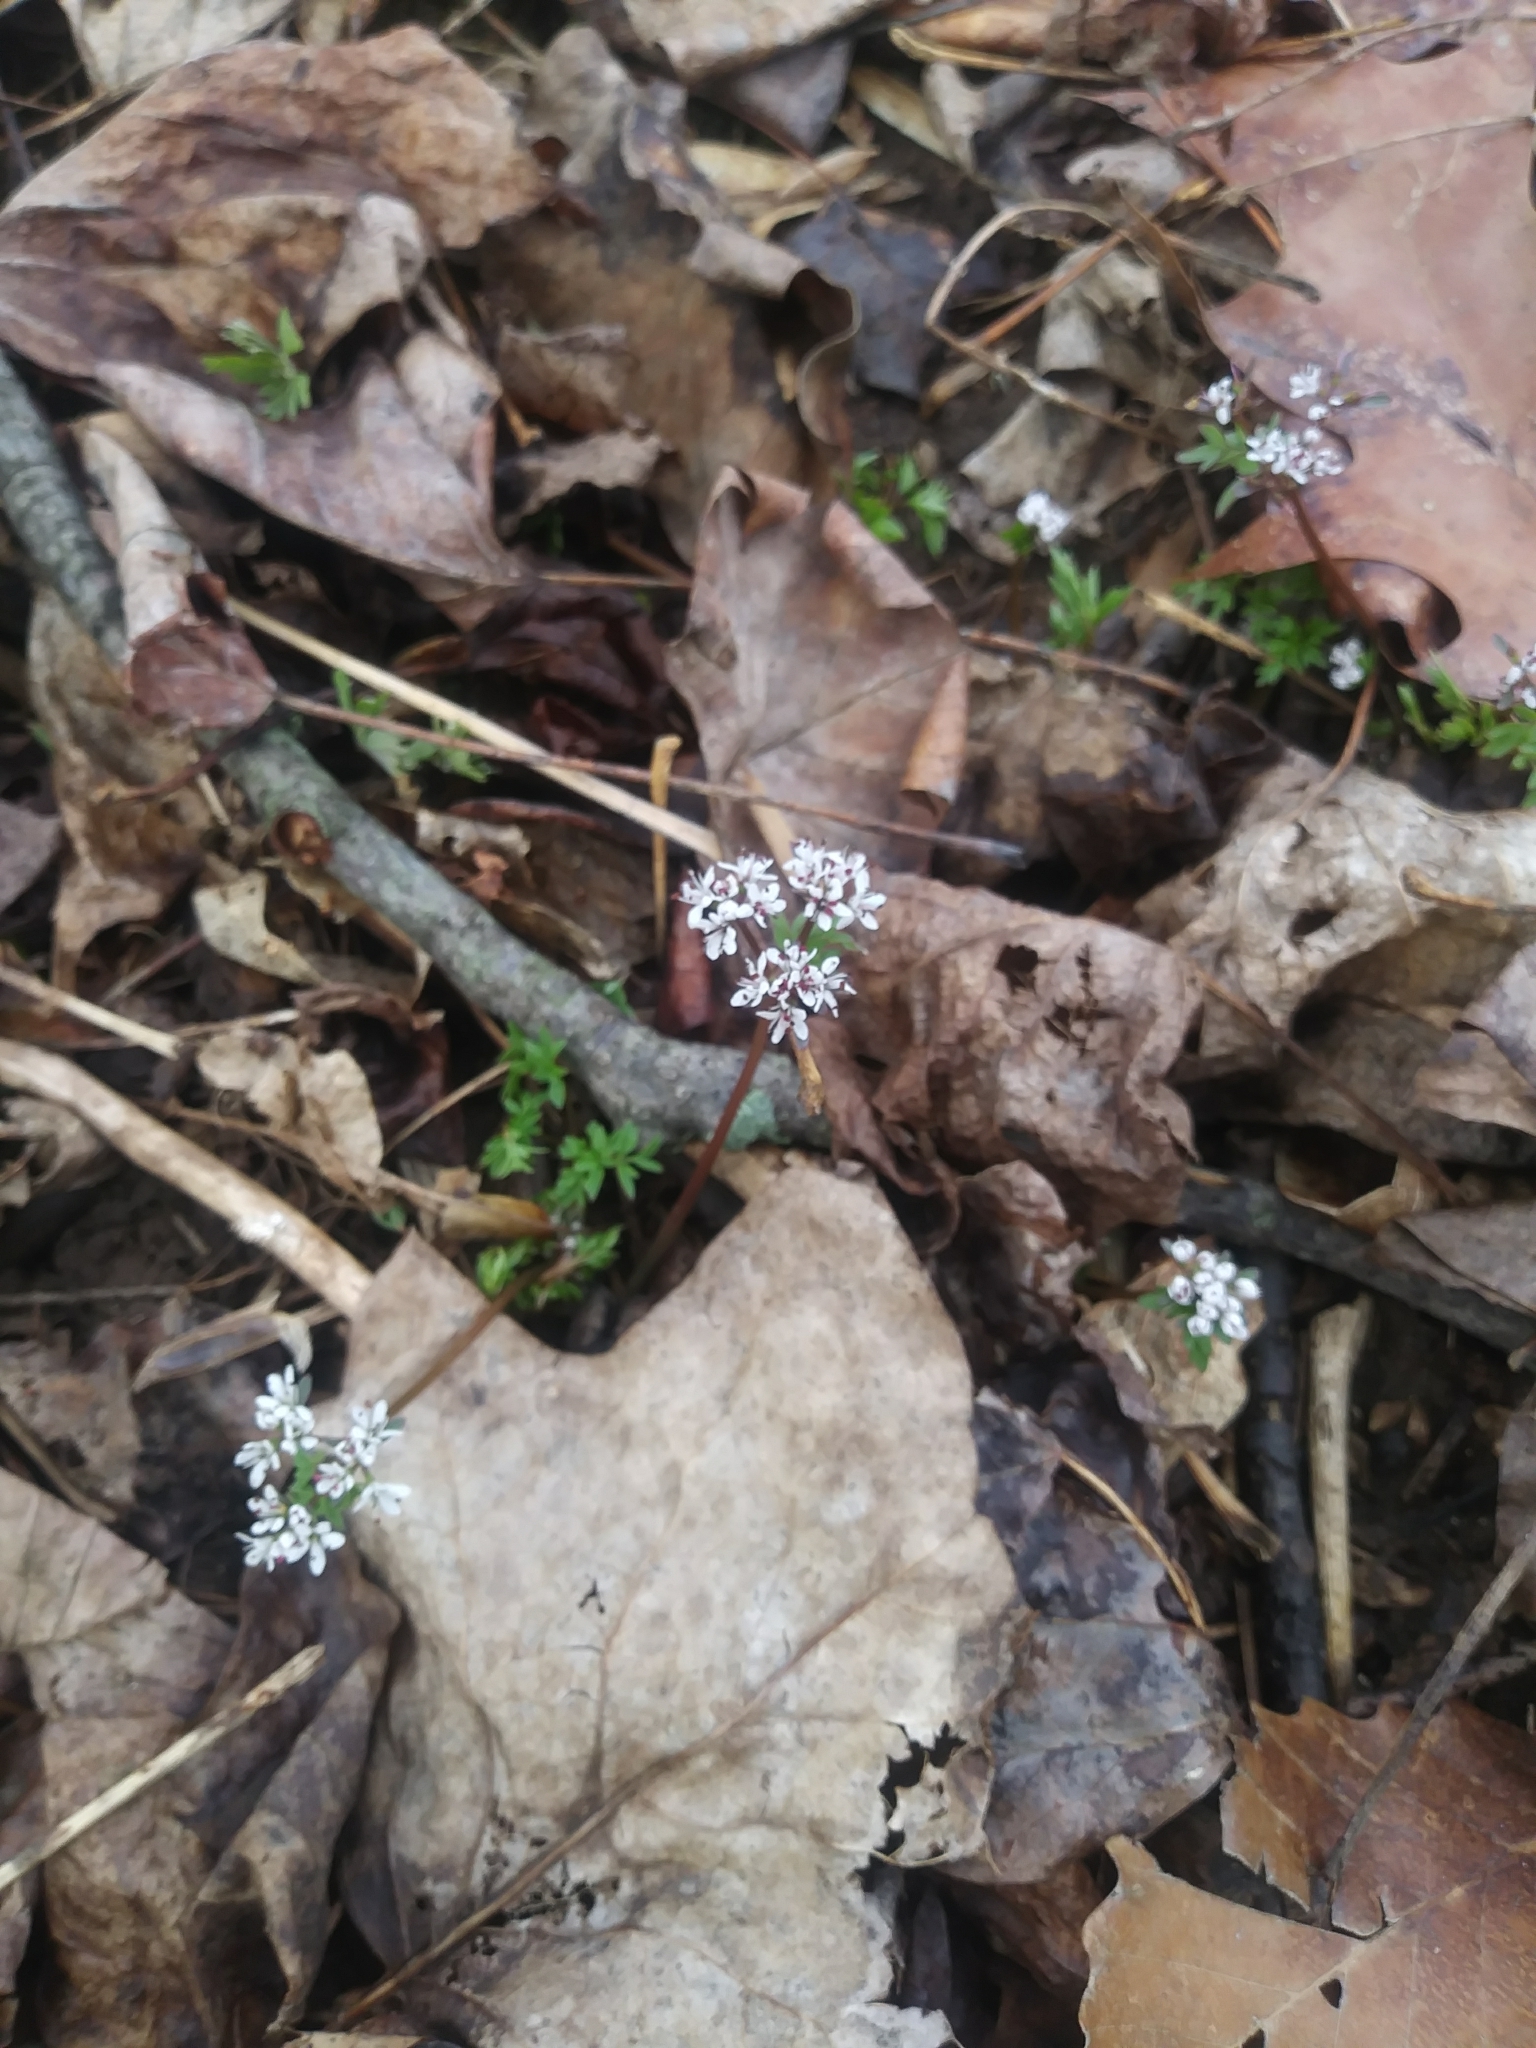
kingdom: Plantae
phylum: Tracheophyta
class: Magnoliopsida
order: Apiales
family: Apiaceae
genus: Erigenia
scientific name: Erigenia bulbosa
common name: Pepper-and-salt
